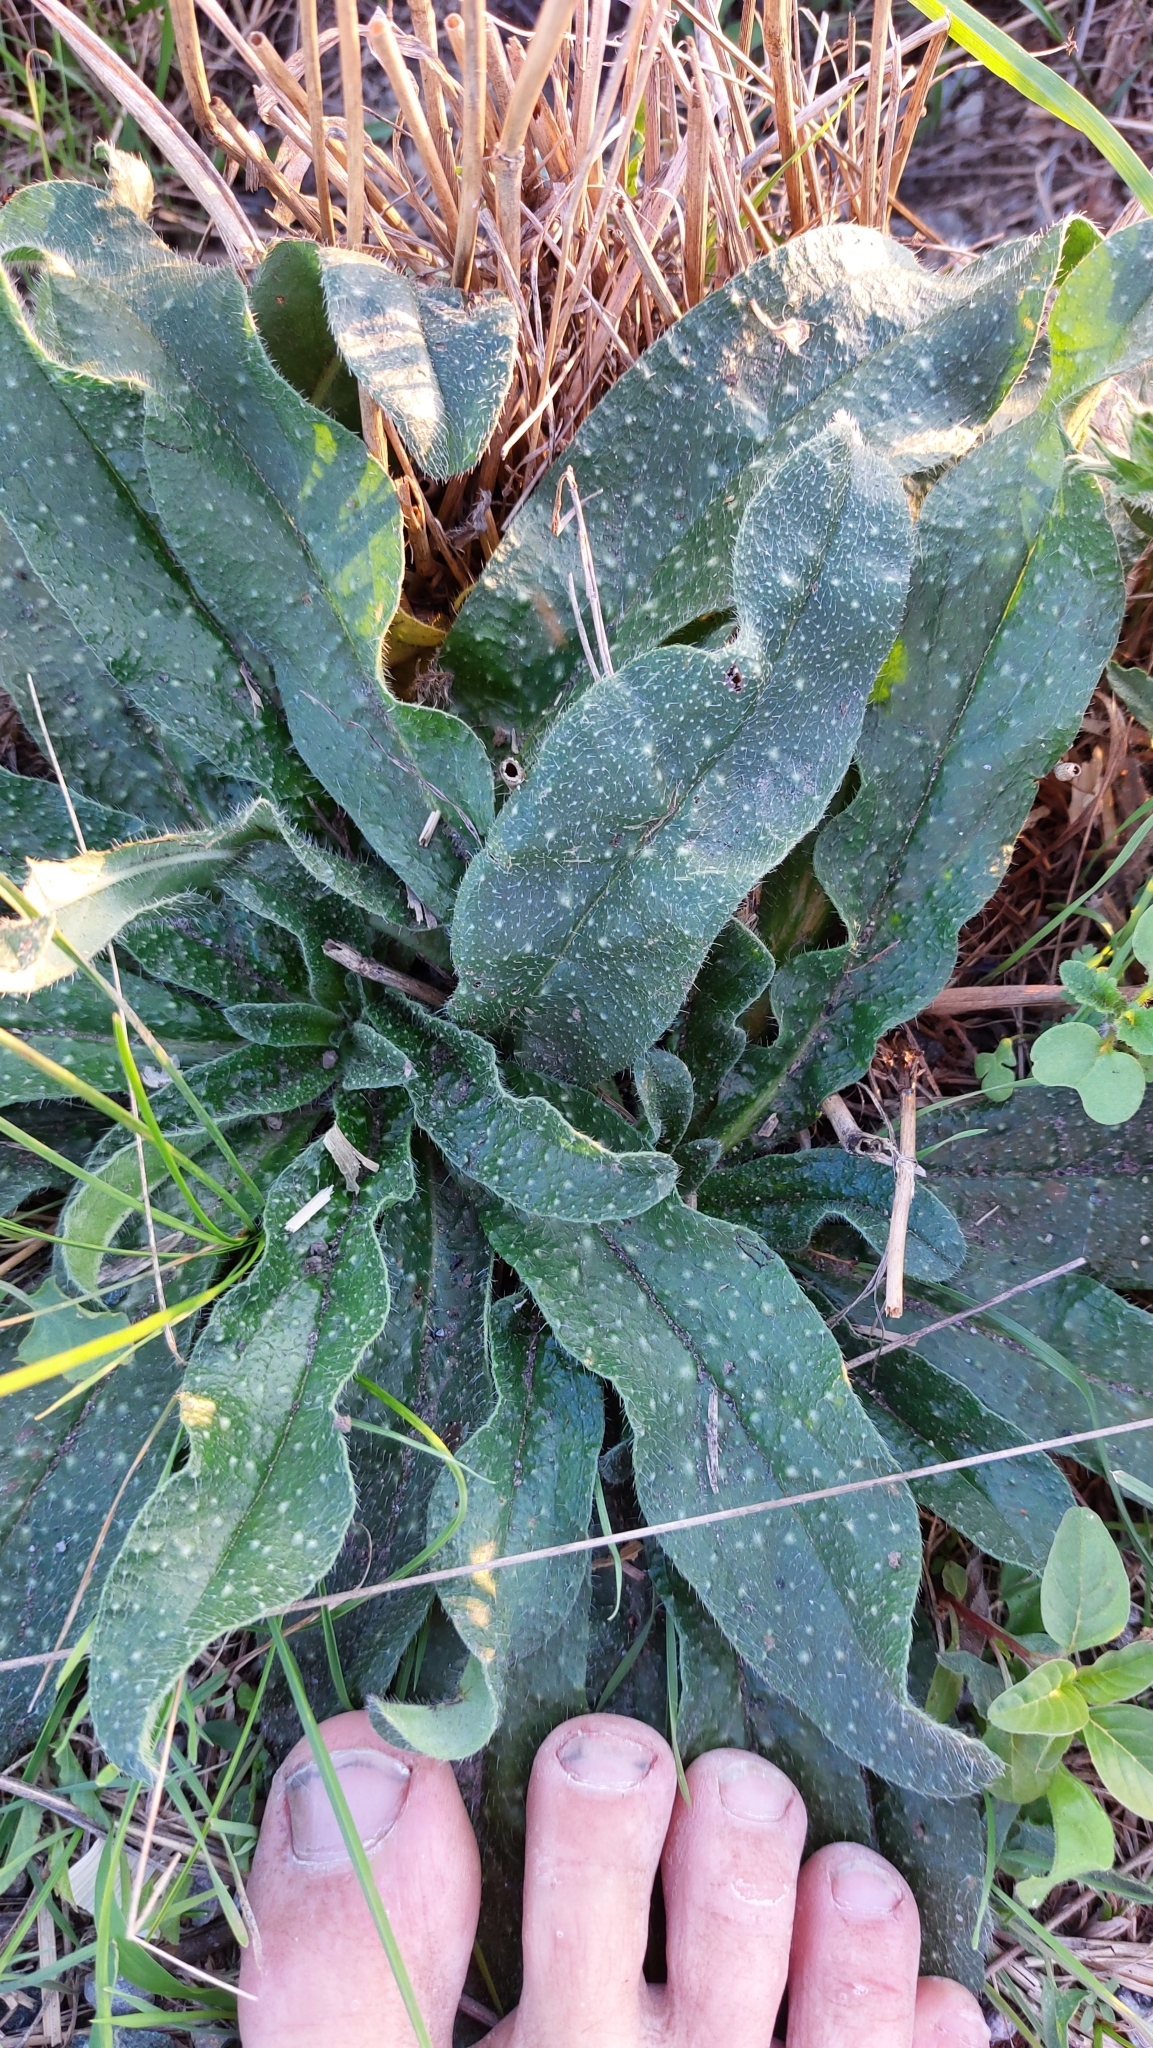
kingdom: Plantae
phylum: Tracheophyta
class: Magnoliopsida
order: Boraginales
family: Boraginaceae
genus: Echium
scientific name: Echium vulgare
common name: Common viper's bugloss
